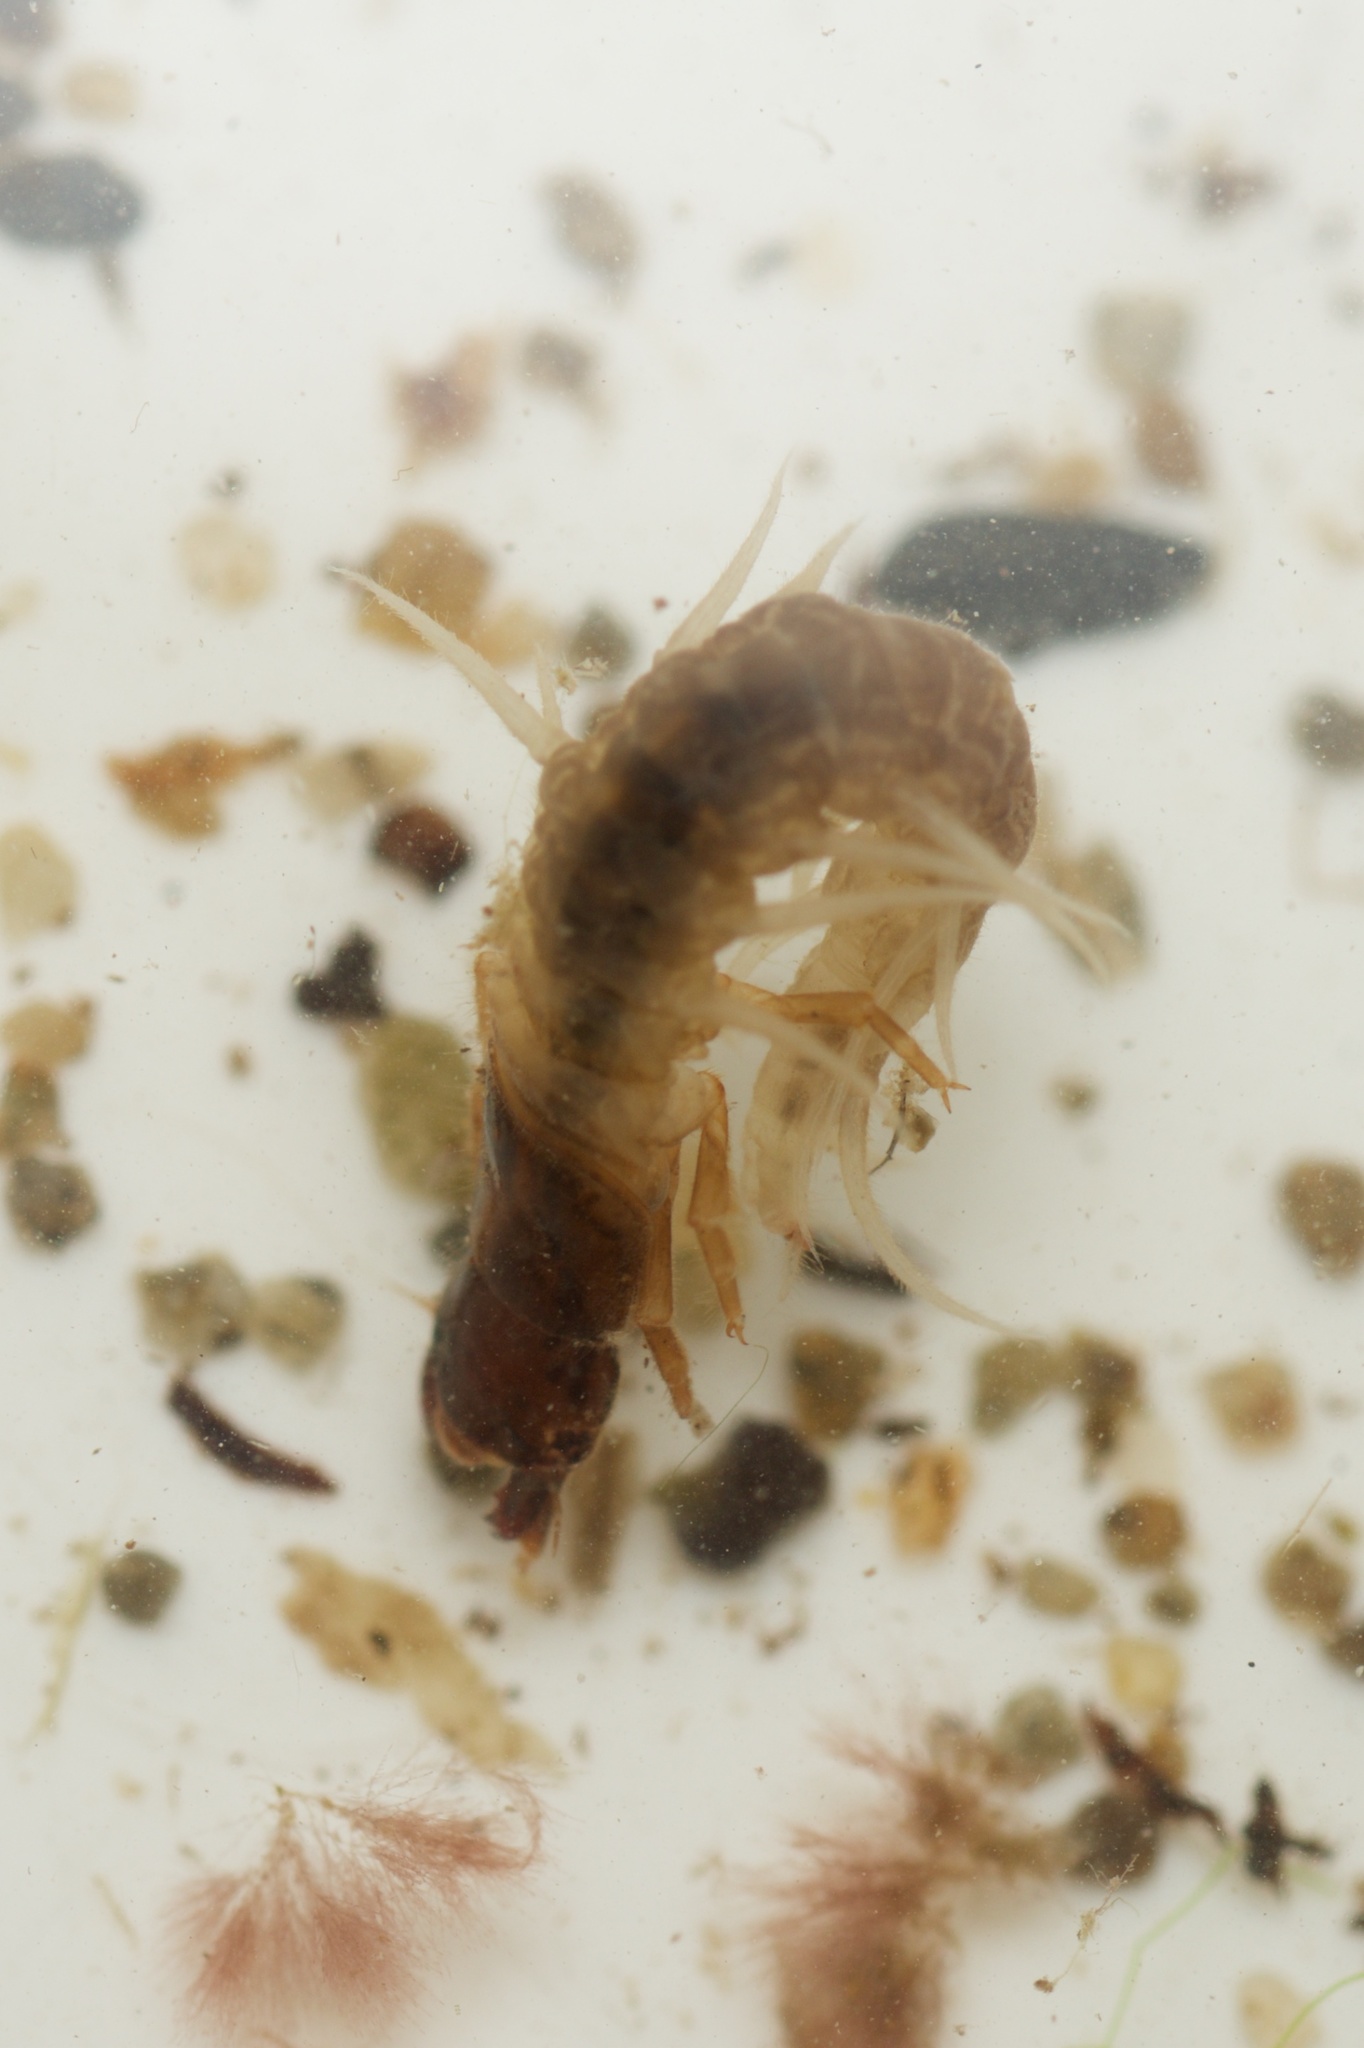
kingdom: Animalia
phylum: Arthropoda
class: Insecta
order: Megaloptera
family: Corydalidae
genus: Archichauliodes
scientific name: Archichauliodes diversus
